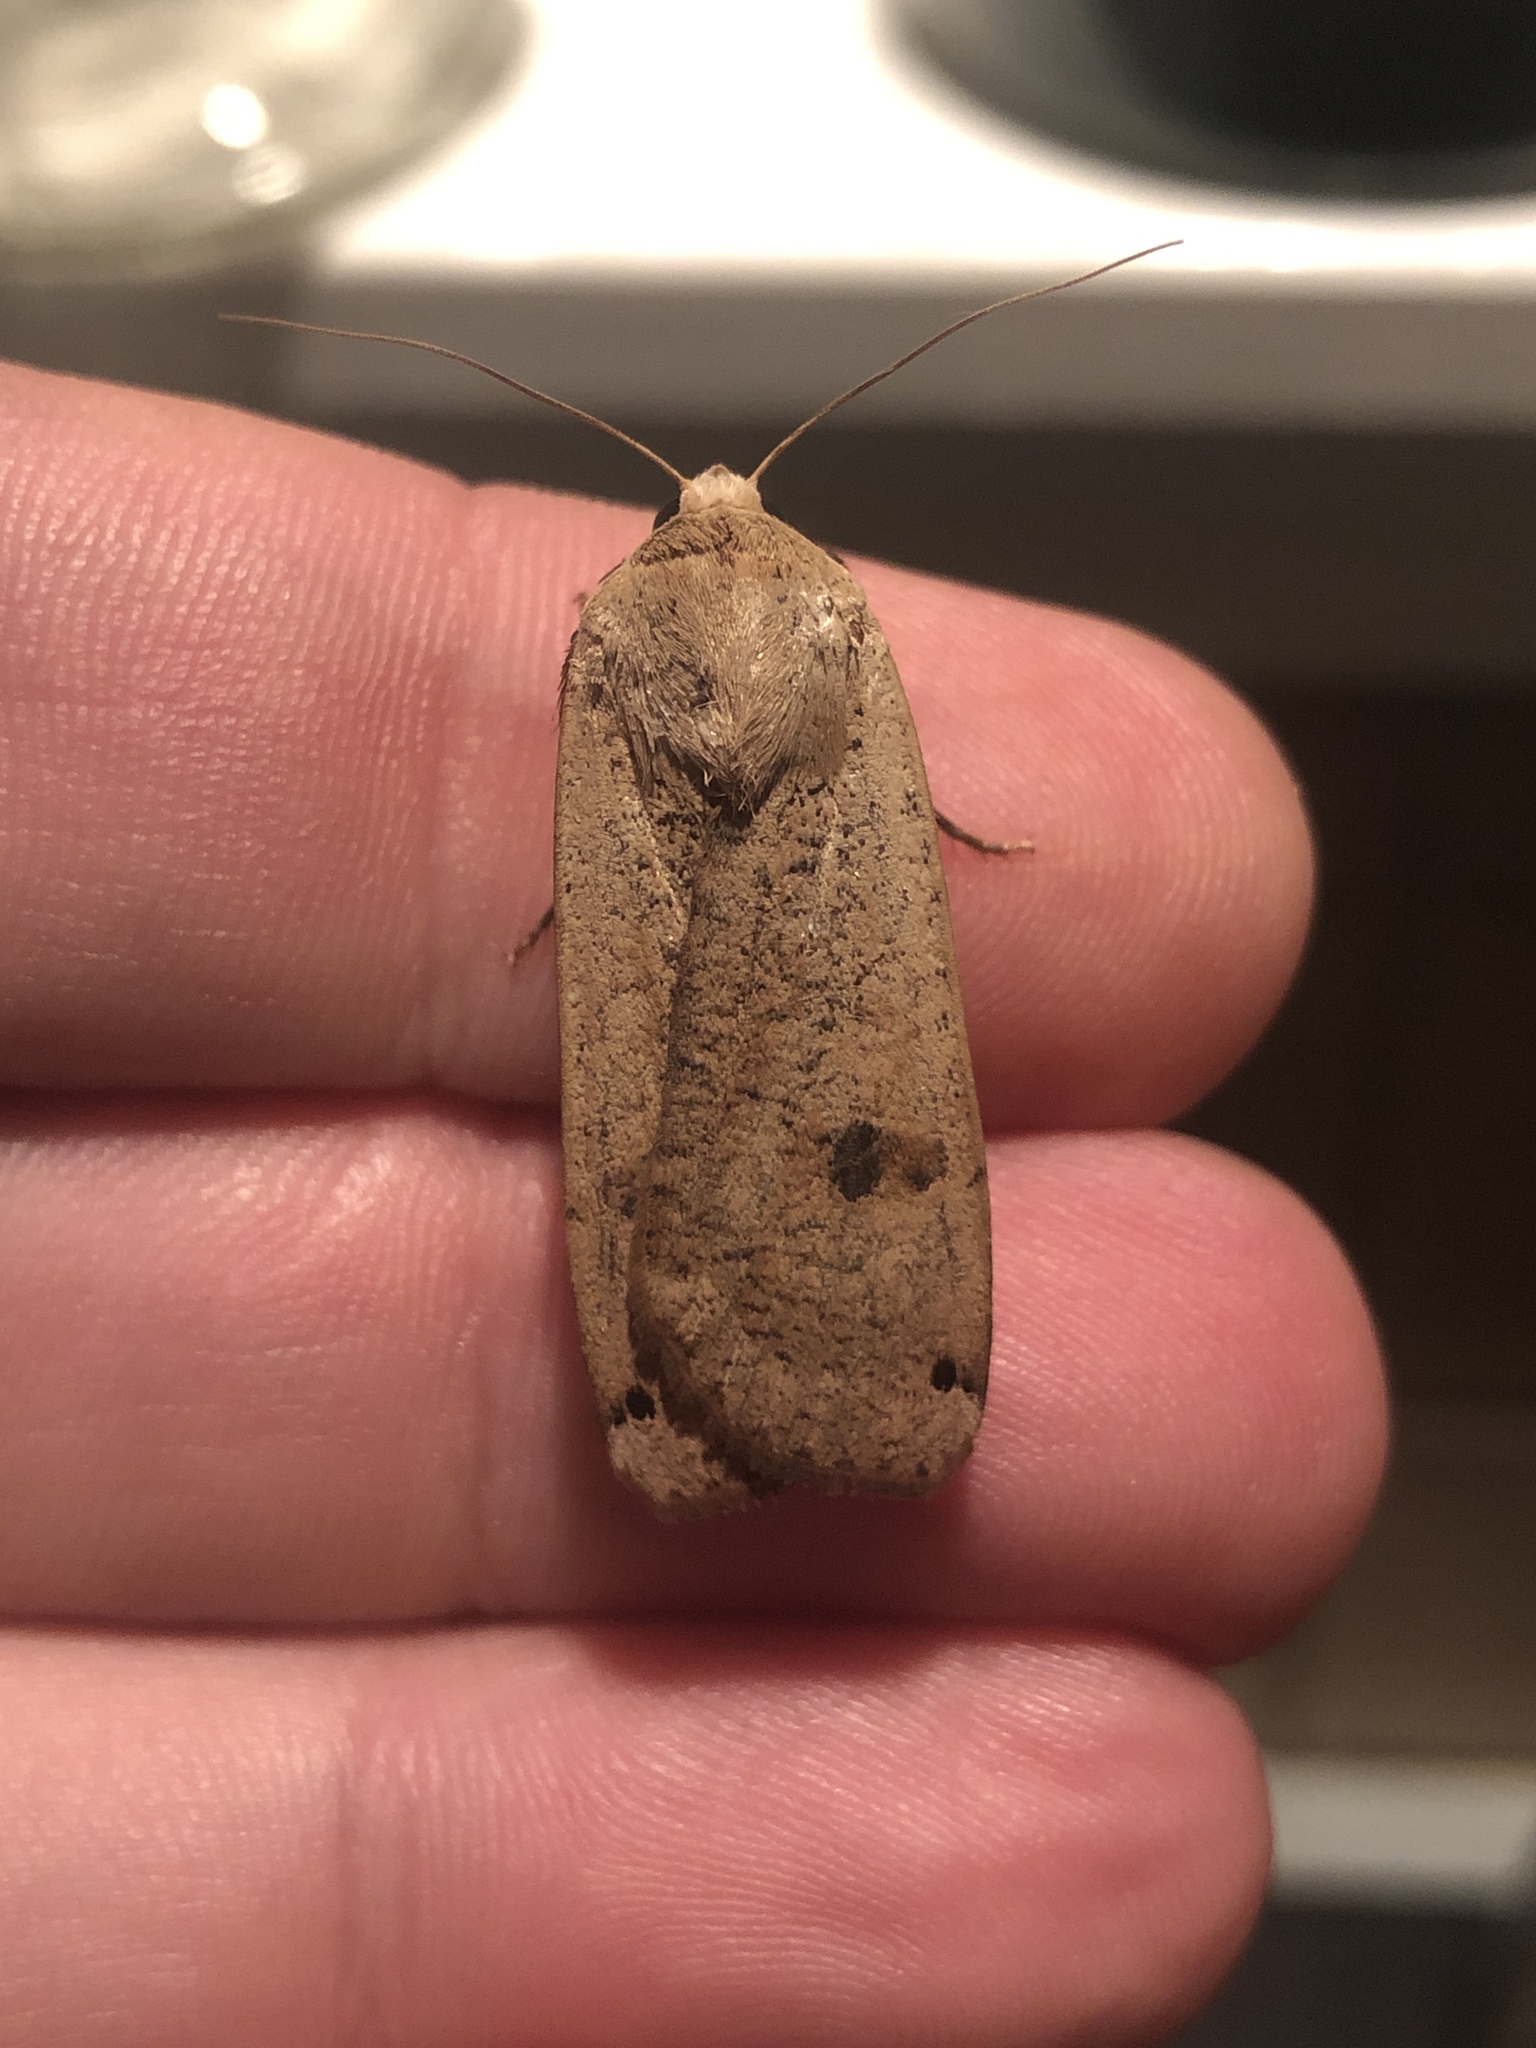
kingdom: Animalia
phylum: Arthropoda
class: Insecta
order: Lepidoptera
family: Noctuidae
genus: Noctua
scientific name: Noctua pronuba
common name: Large yellow underwing
